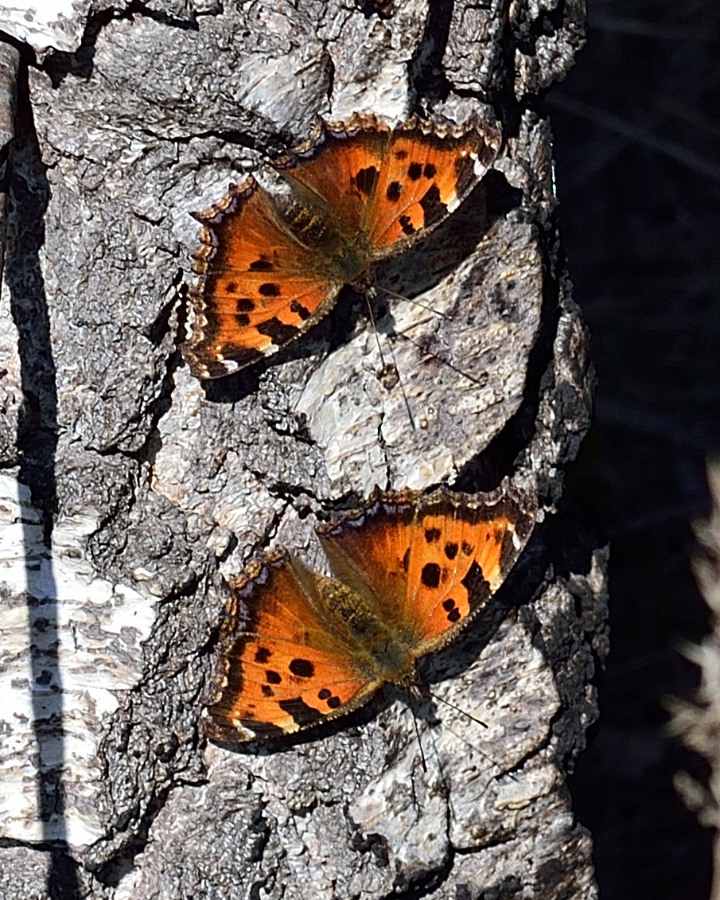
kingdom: Animalia
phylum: Arthropoda
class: Insecta
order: Lepidoptera
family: Nymphalidae
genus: Nymphalis
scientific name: Nymphalis xanthomelas
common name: Scarce tortoiseshell
